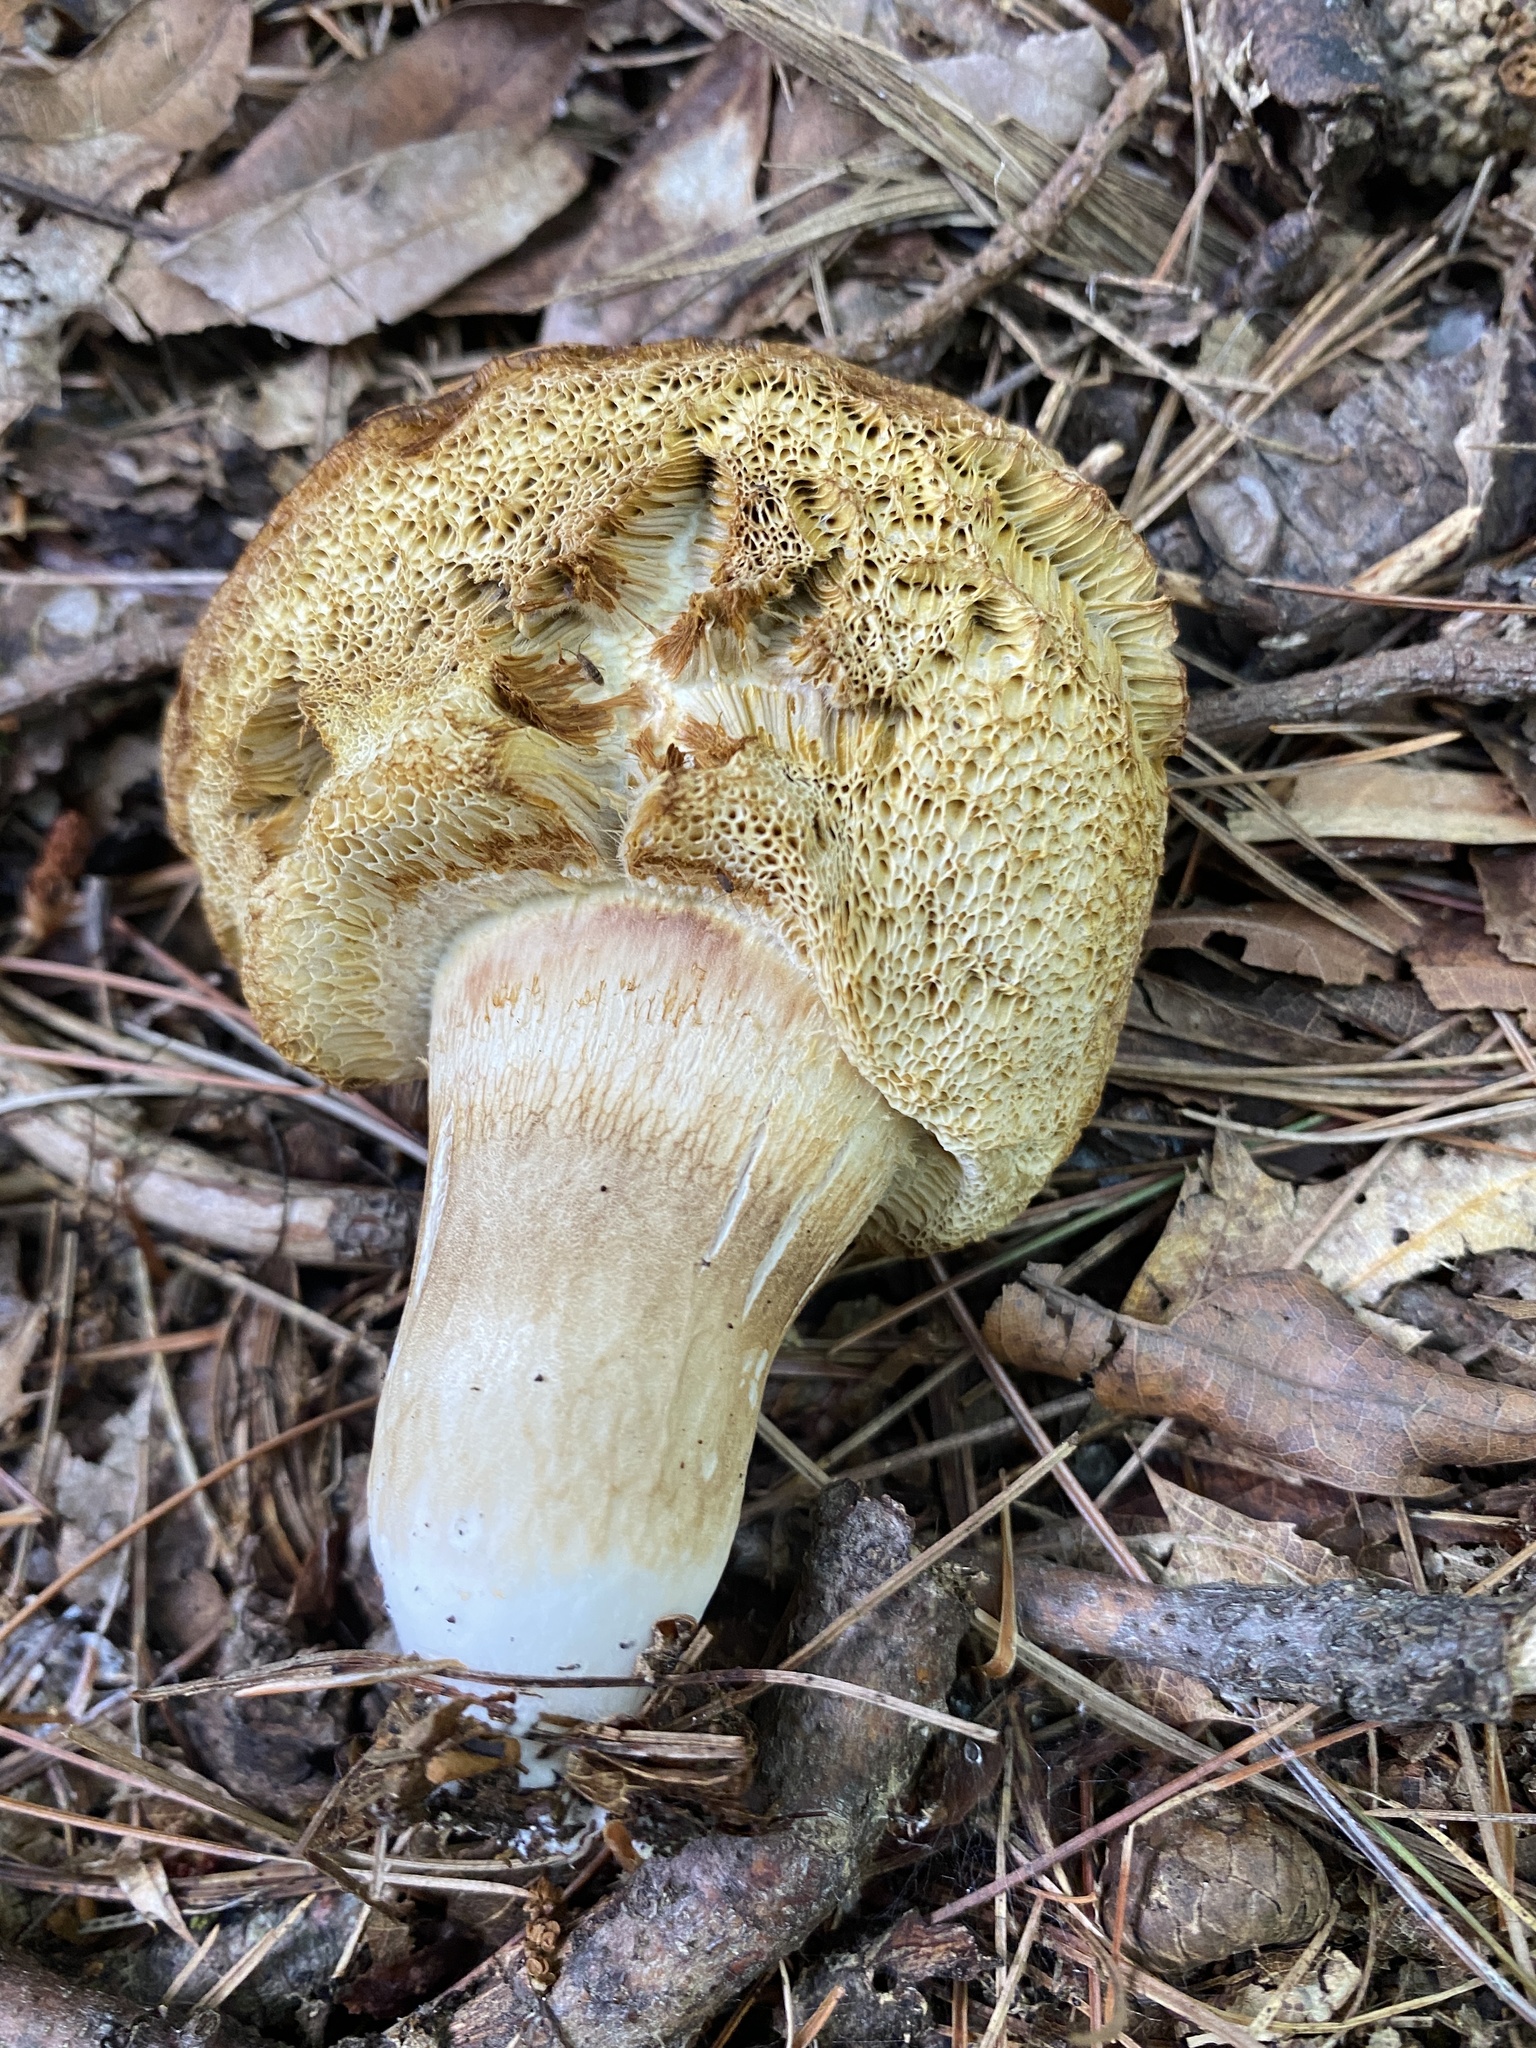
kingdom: Fungi
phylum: Basidiomycota
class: Agaricomycetes
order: Boletales
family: Boletaceae
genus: Xanthoconium
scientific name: Xanthoconium affine
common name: Spotted bolete
